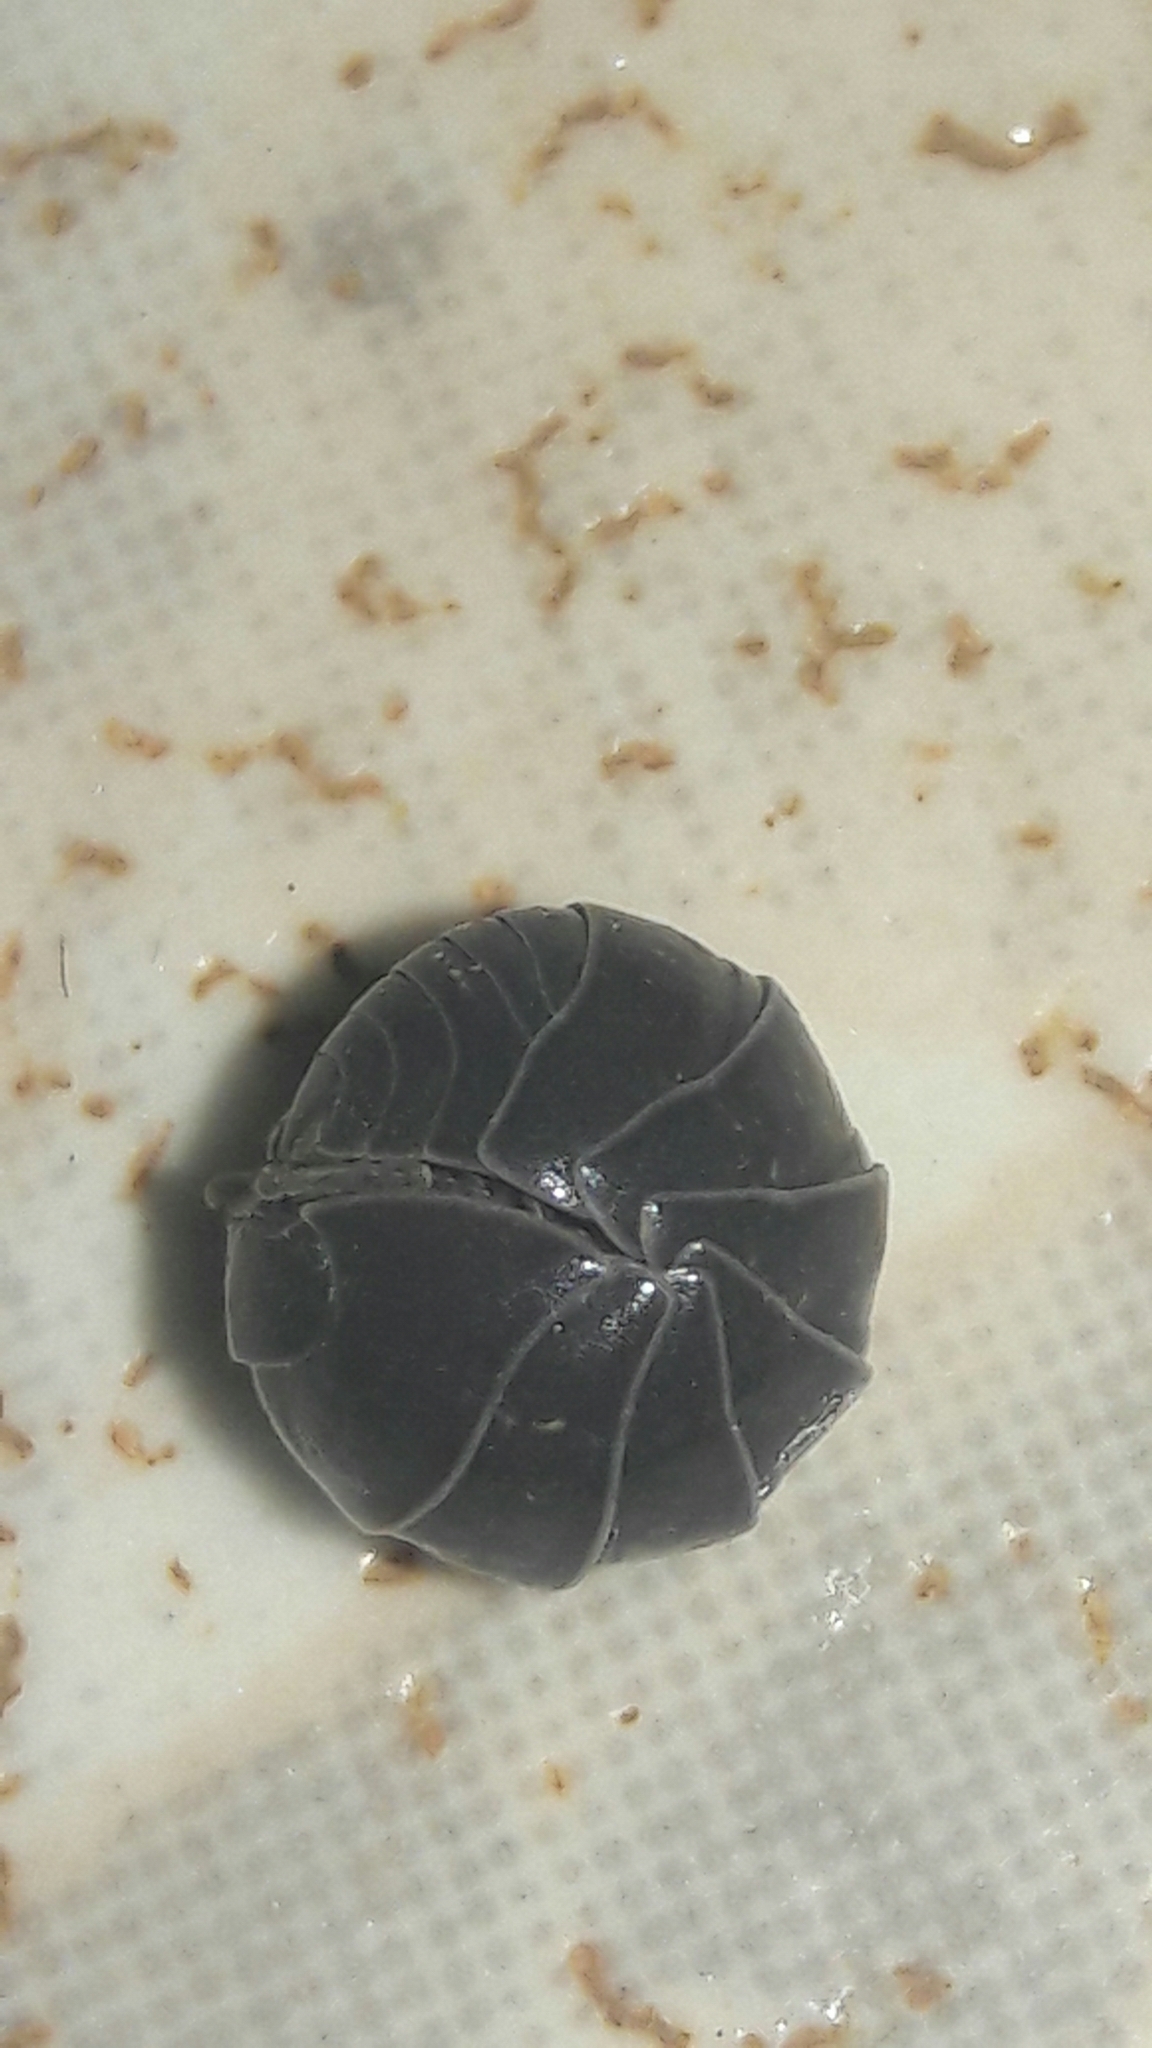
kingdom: Animalia
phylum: Arthropoda
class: Malacostraca
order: Isopoda
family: Armadillidiidae
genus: Armadillidium
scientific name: Armadillidium vulgare
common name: Common pill woodlouse
